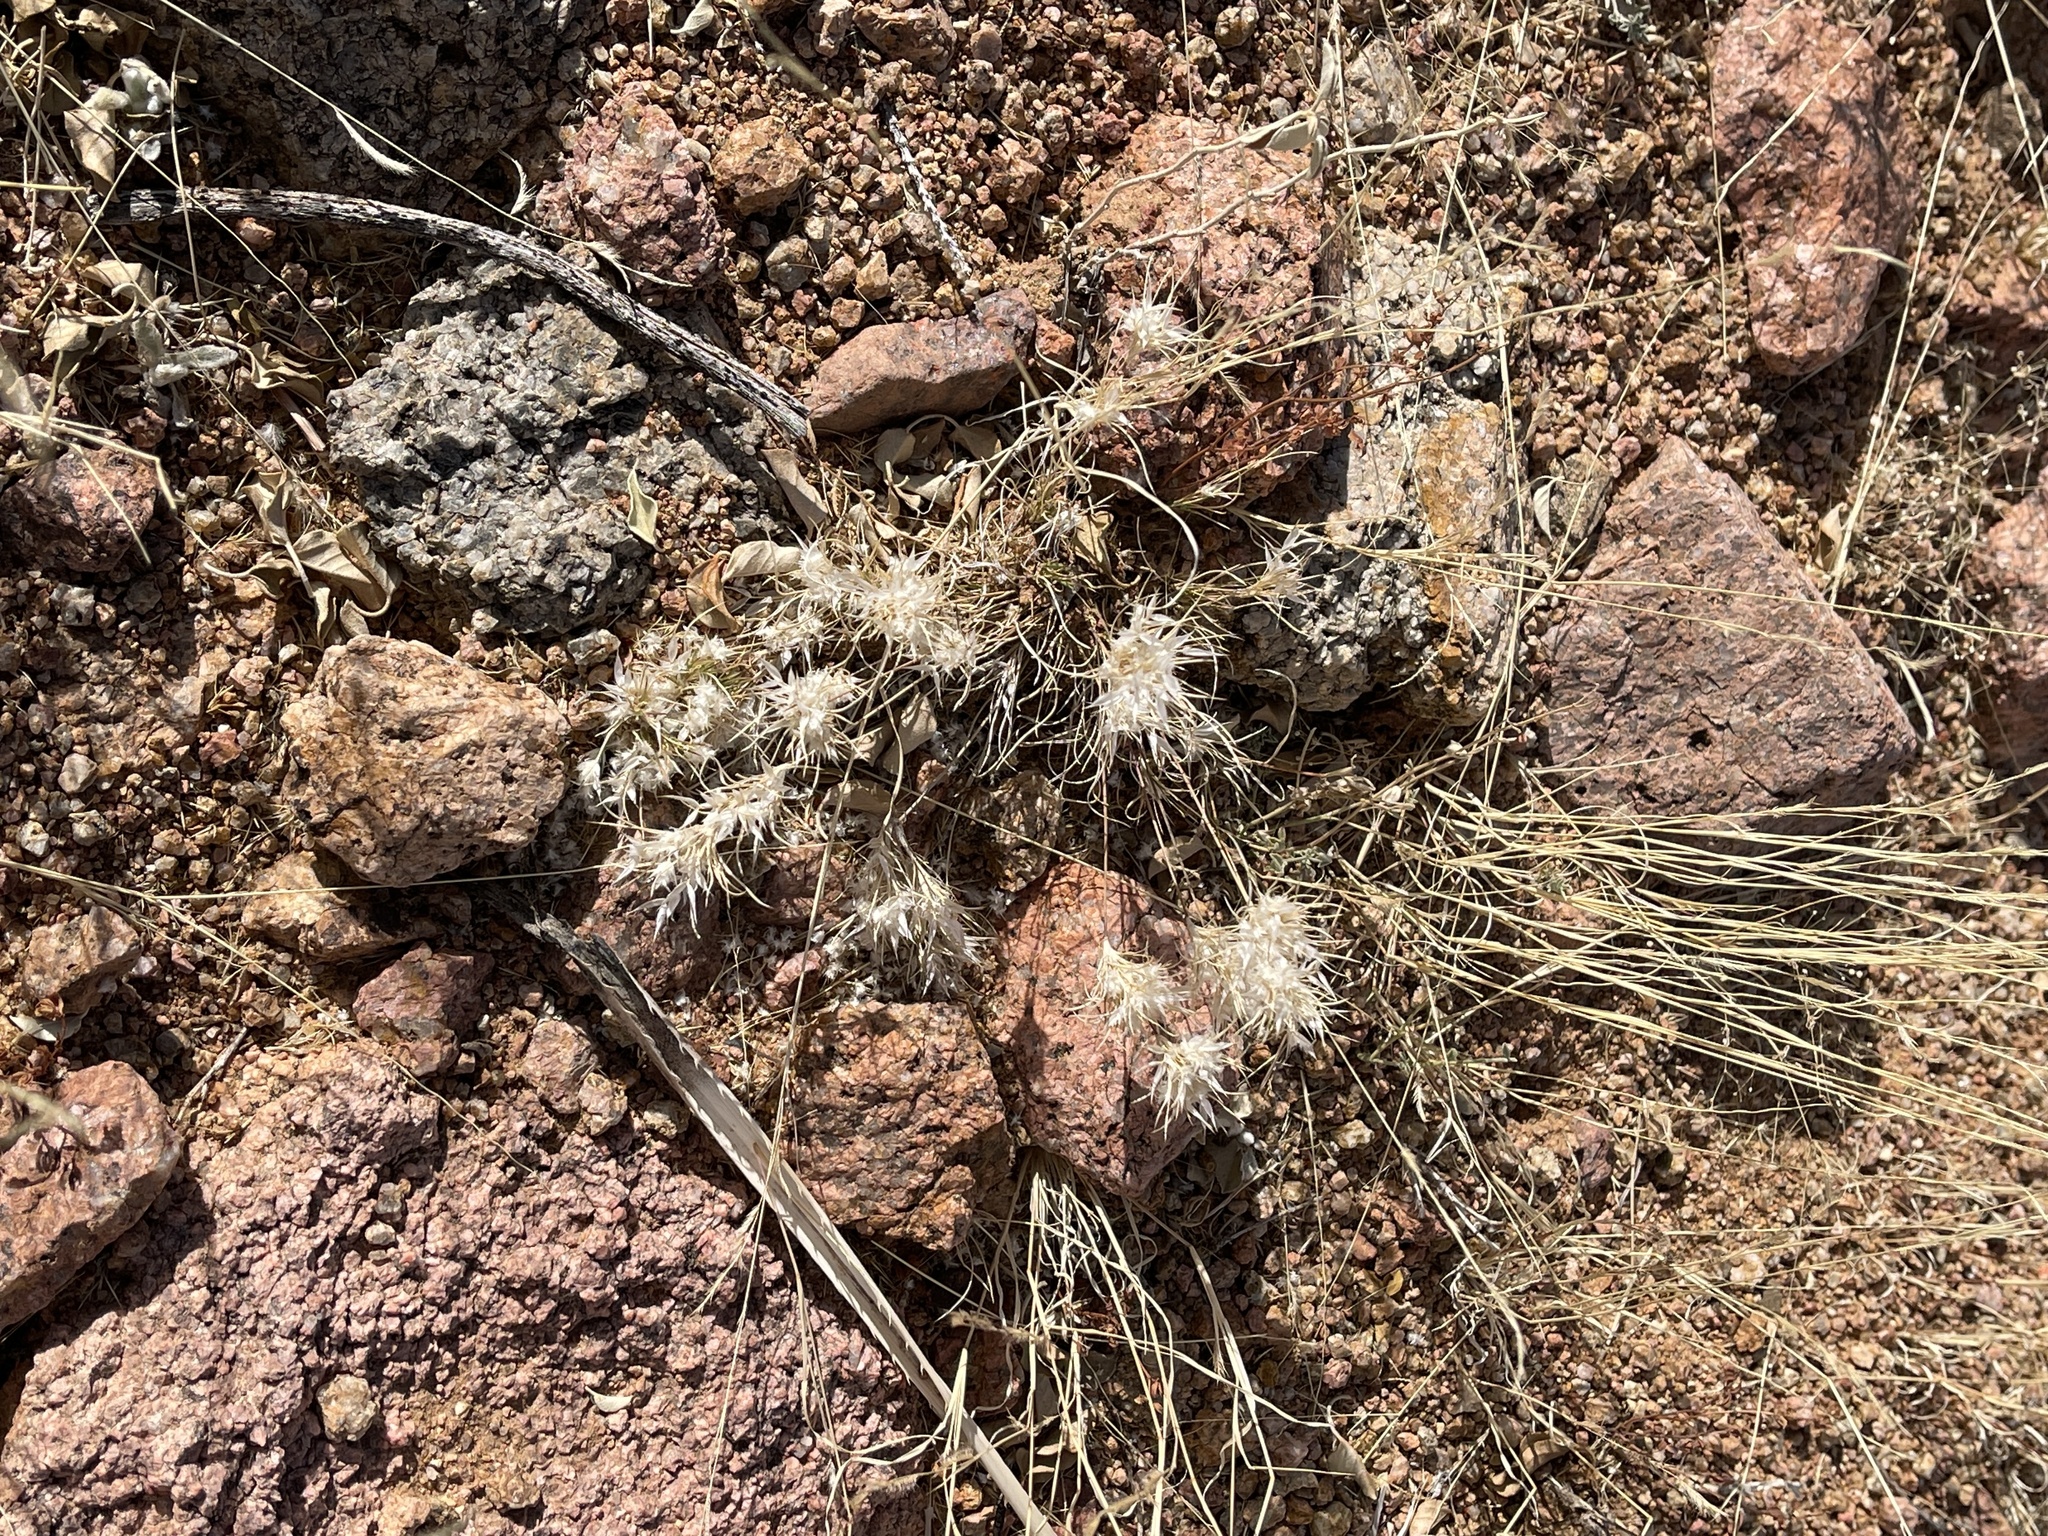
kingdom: Plantae
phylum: Tracheophyta
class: Liliopsida
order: Poales
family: Poaceae
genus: Dasyochloa
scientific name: Dasyochloa pulchella
